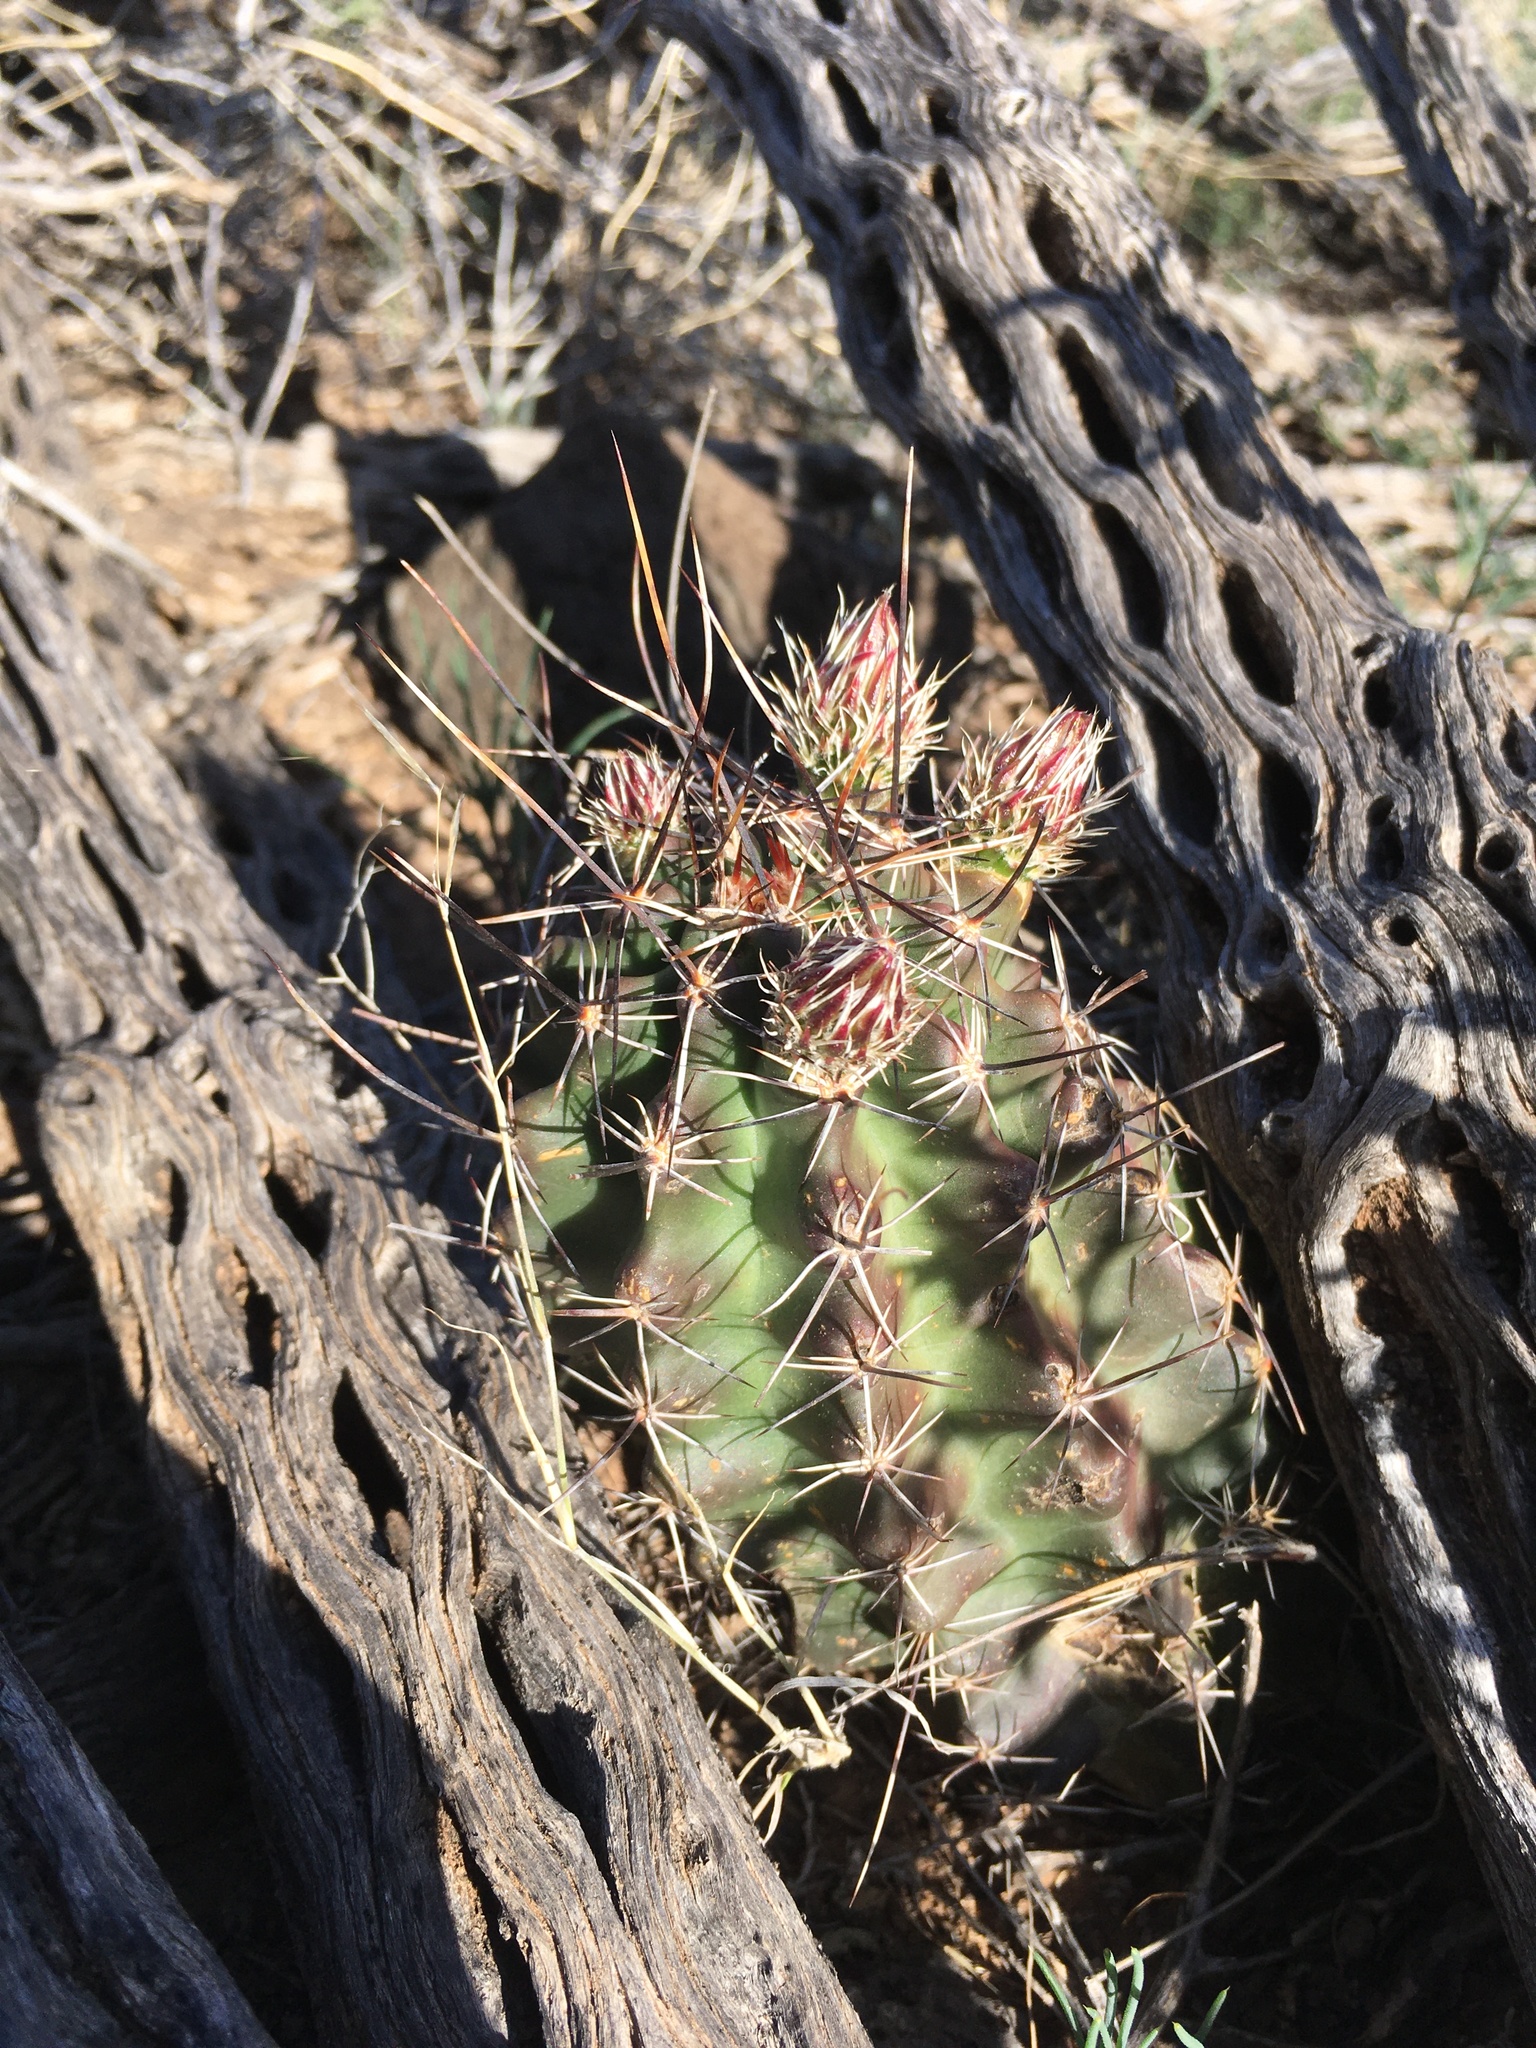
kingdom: Plantae
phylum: Tracheophyta
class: Magnoliopsida
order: Caryophyllales
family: Cactaceae
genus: Echinocereus
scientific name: Echinocereus fendleri
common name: Fendler's hedgehog cactus
